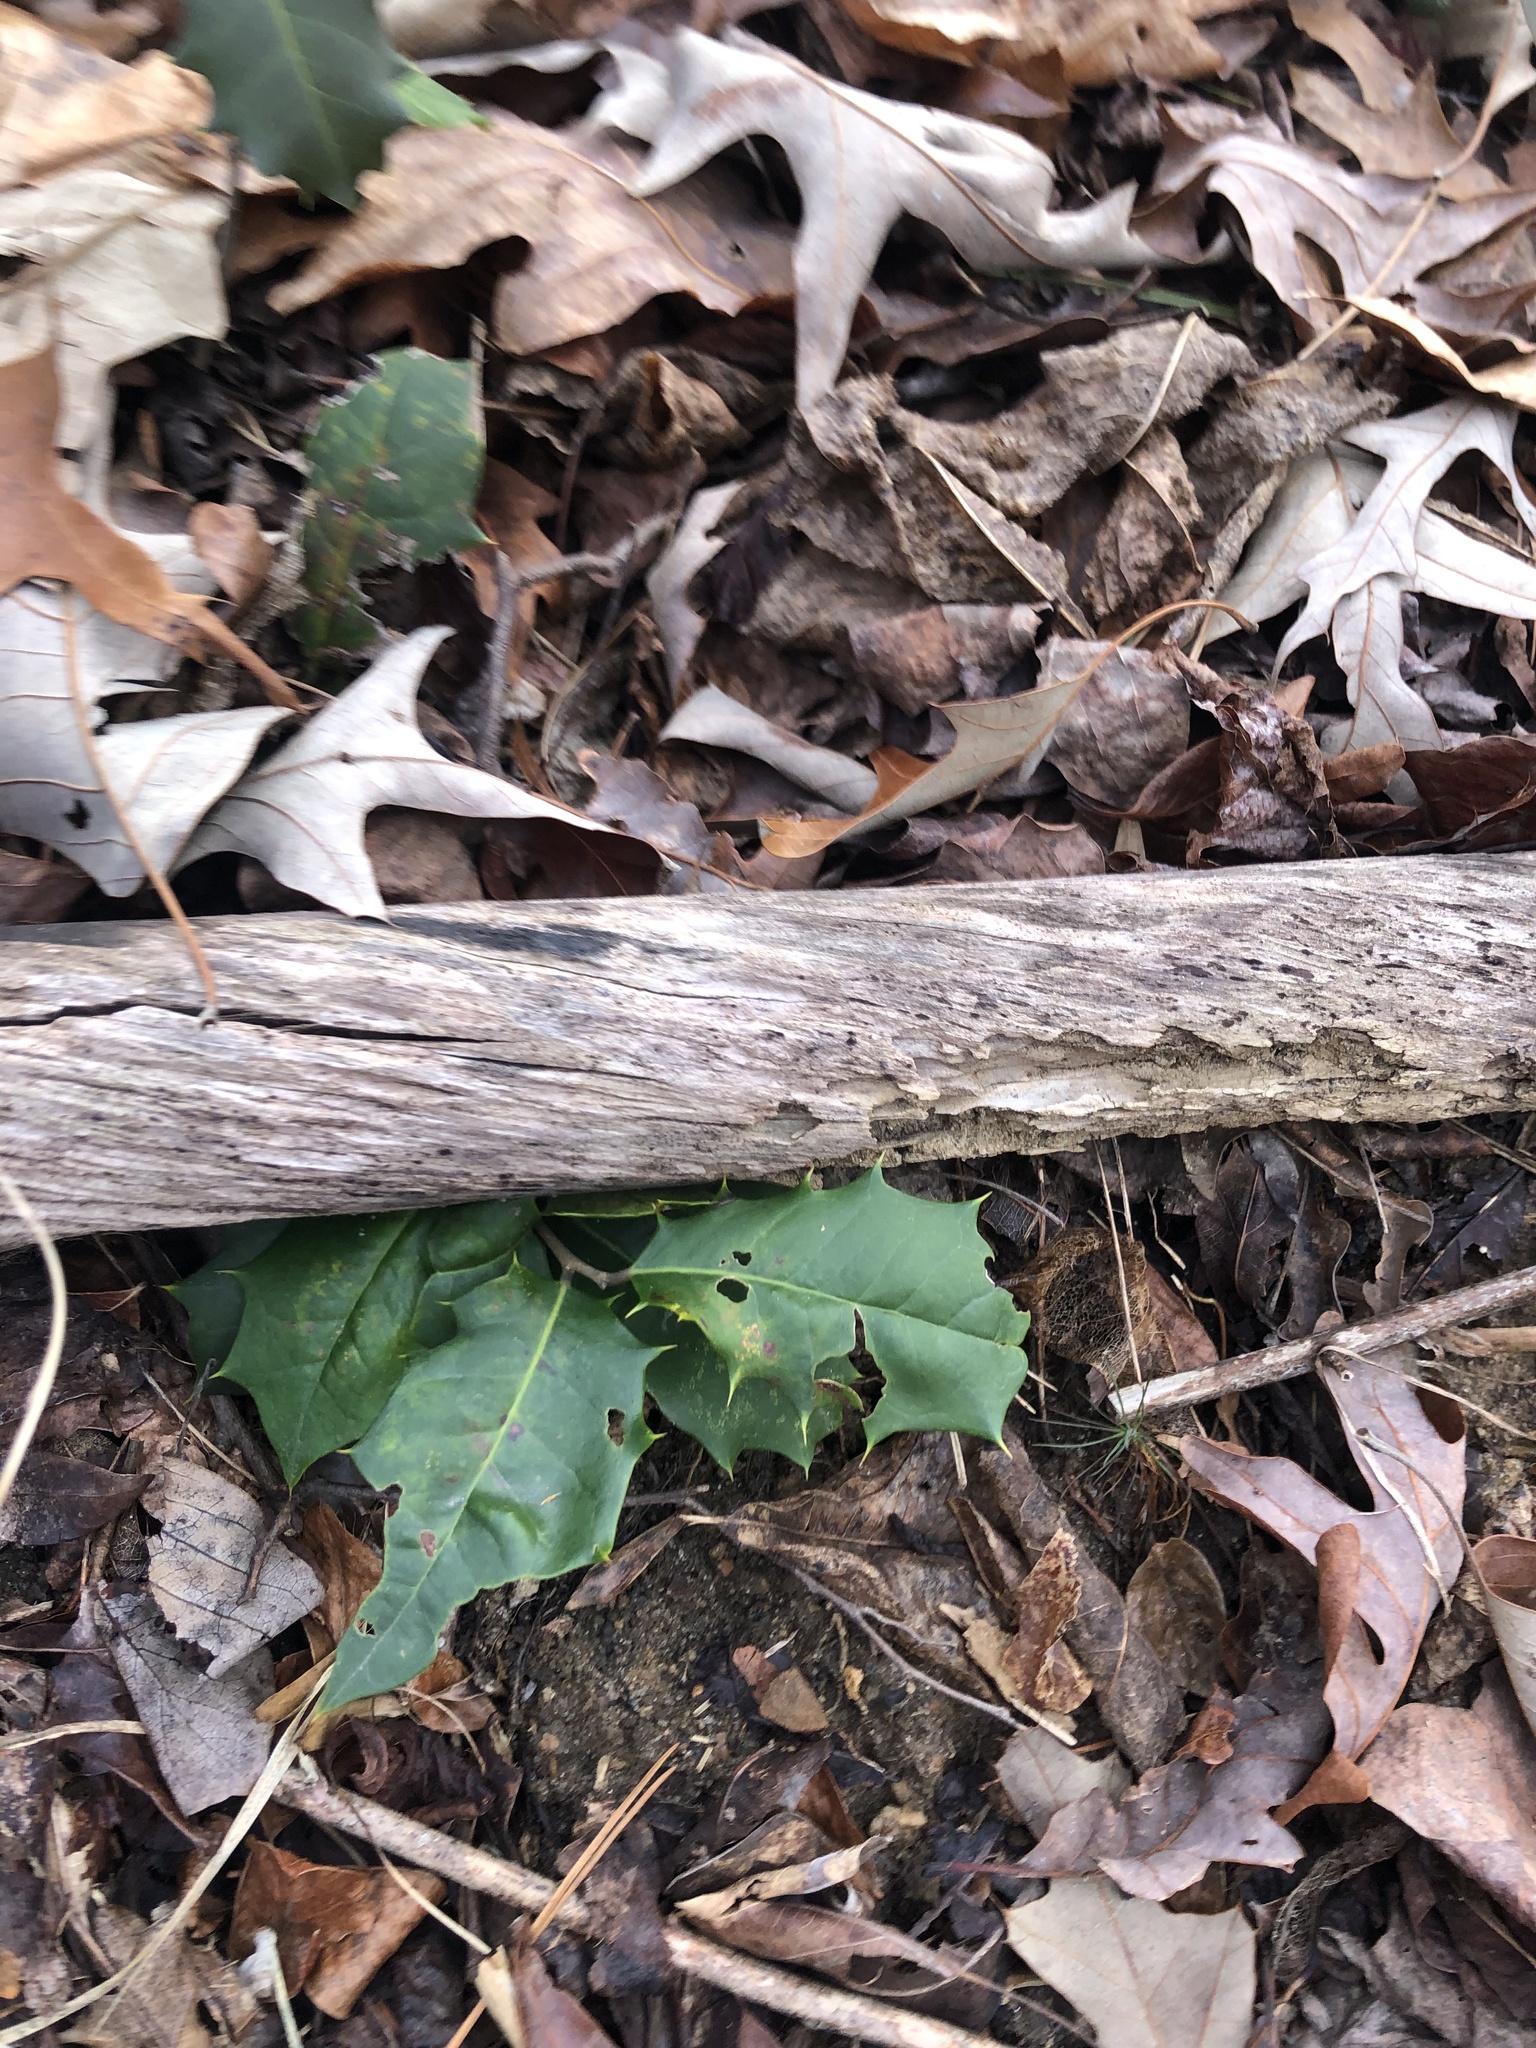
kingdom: Plantae
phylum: Tracheophyta
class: Magnoliopsida
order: Aquifoliales
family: Aquifoliaceae
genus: Ilex
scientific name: Ilex opaca
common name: American holly
